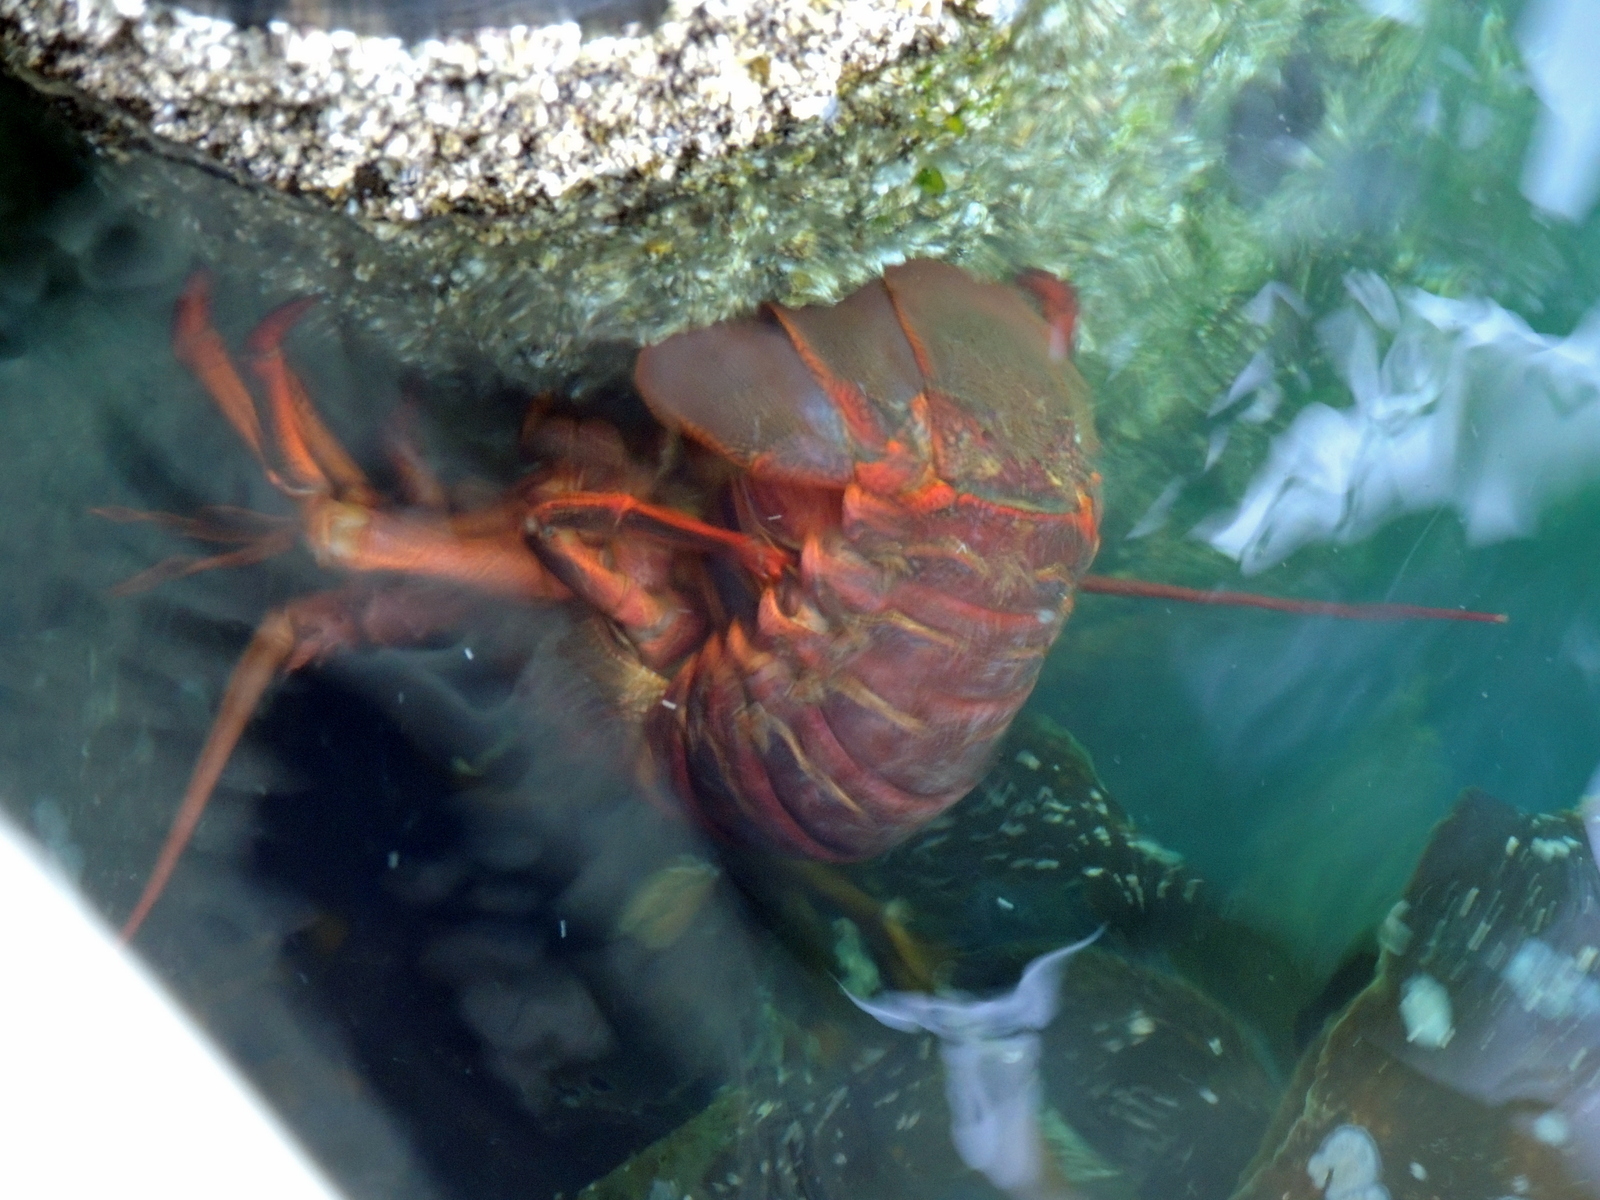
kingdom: Animalia
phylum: Arthropoda
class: Malacostraca
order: Decapoda
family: Palinuridae
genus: Panulirus
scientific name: Panulirus interruptus
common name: California spiny lobster
